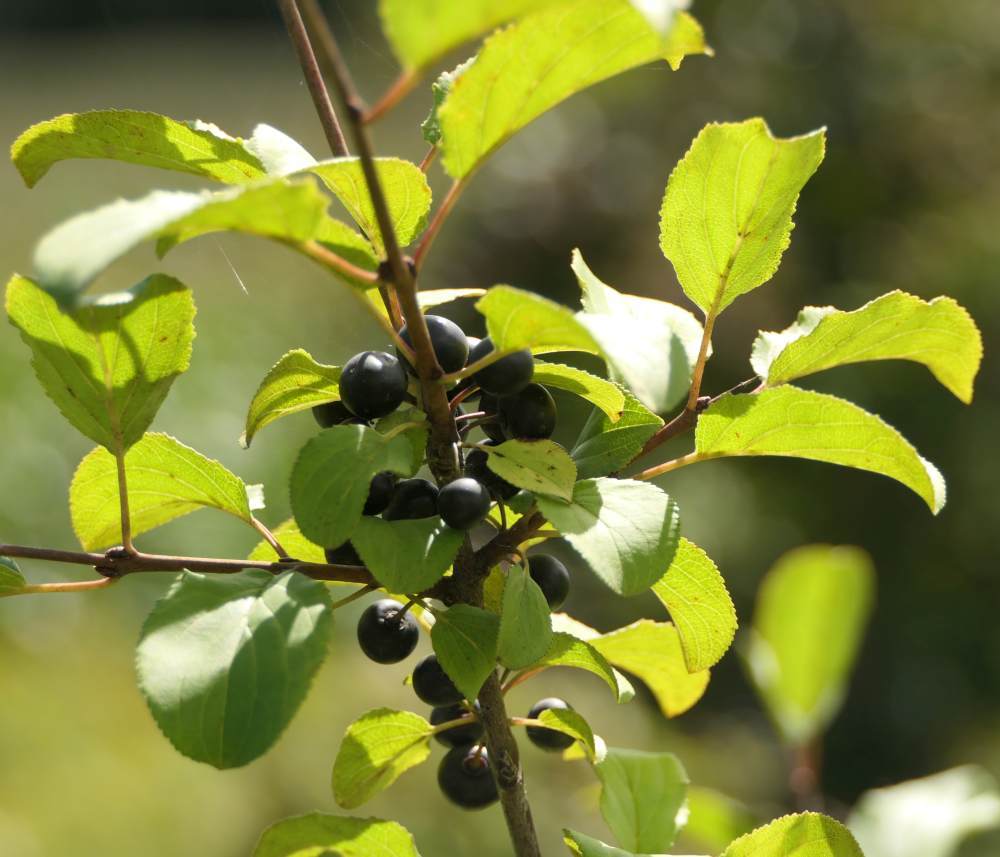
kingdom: Plantae
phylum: Tracheophyta
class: Magnoliopsida
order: Rosales
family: Rhamnaceae
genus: Rhamnus
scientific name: Rhamnus cathartica
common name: Common buckthorn
